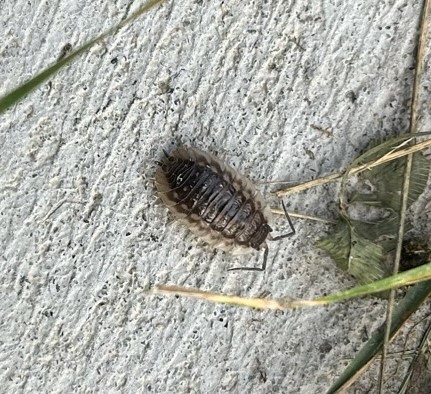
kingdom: Animalia
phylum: Arthropoda
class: Malacostraca
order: Isopoda
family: Oniscidae
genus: Oniscus
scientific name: Oniscus asellus
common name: Common shiny woodlouse
